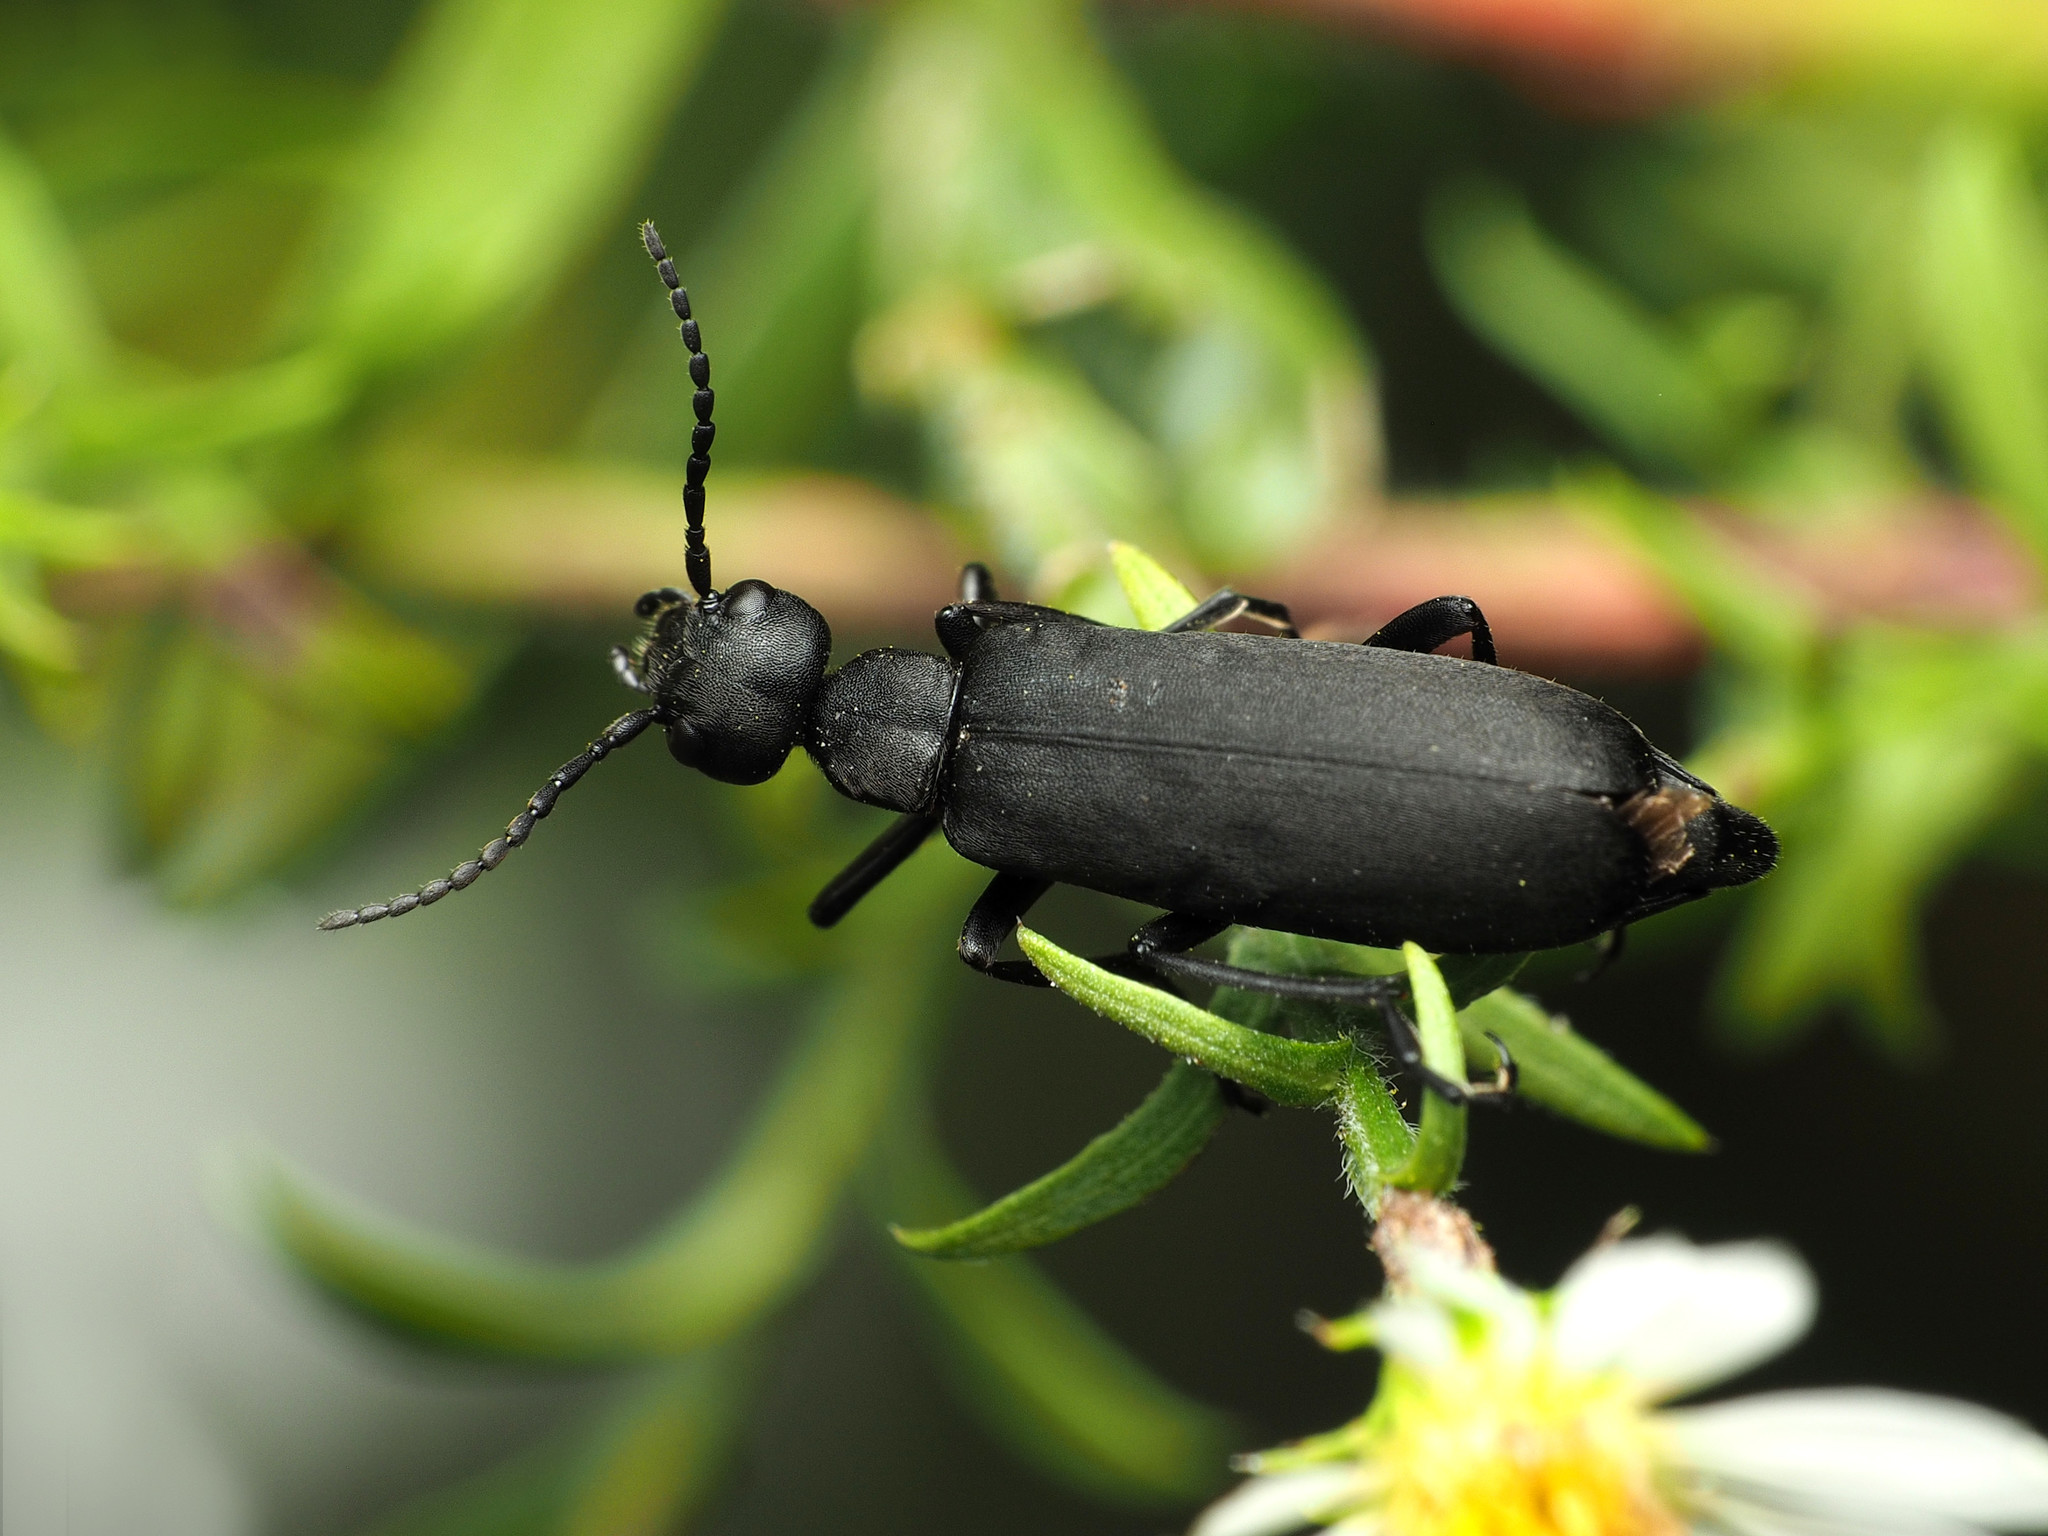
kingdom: Animalia
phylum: Arthropoda
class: Insecta
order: Coleoptera
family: Meloidae
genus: Epicauta
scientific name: Epicauta pensylvanica
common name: Black blister beetle
